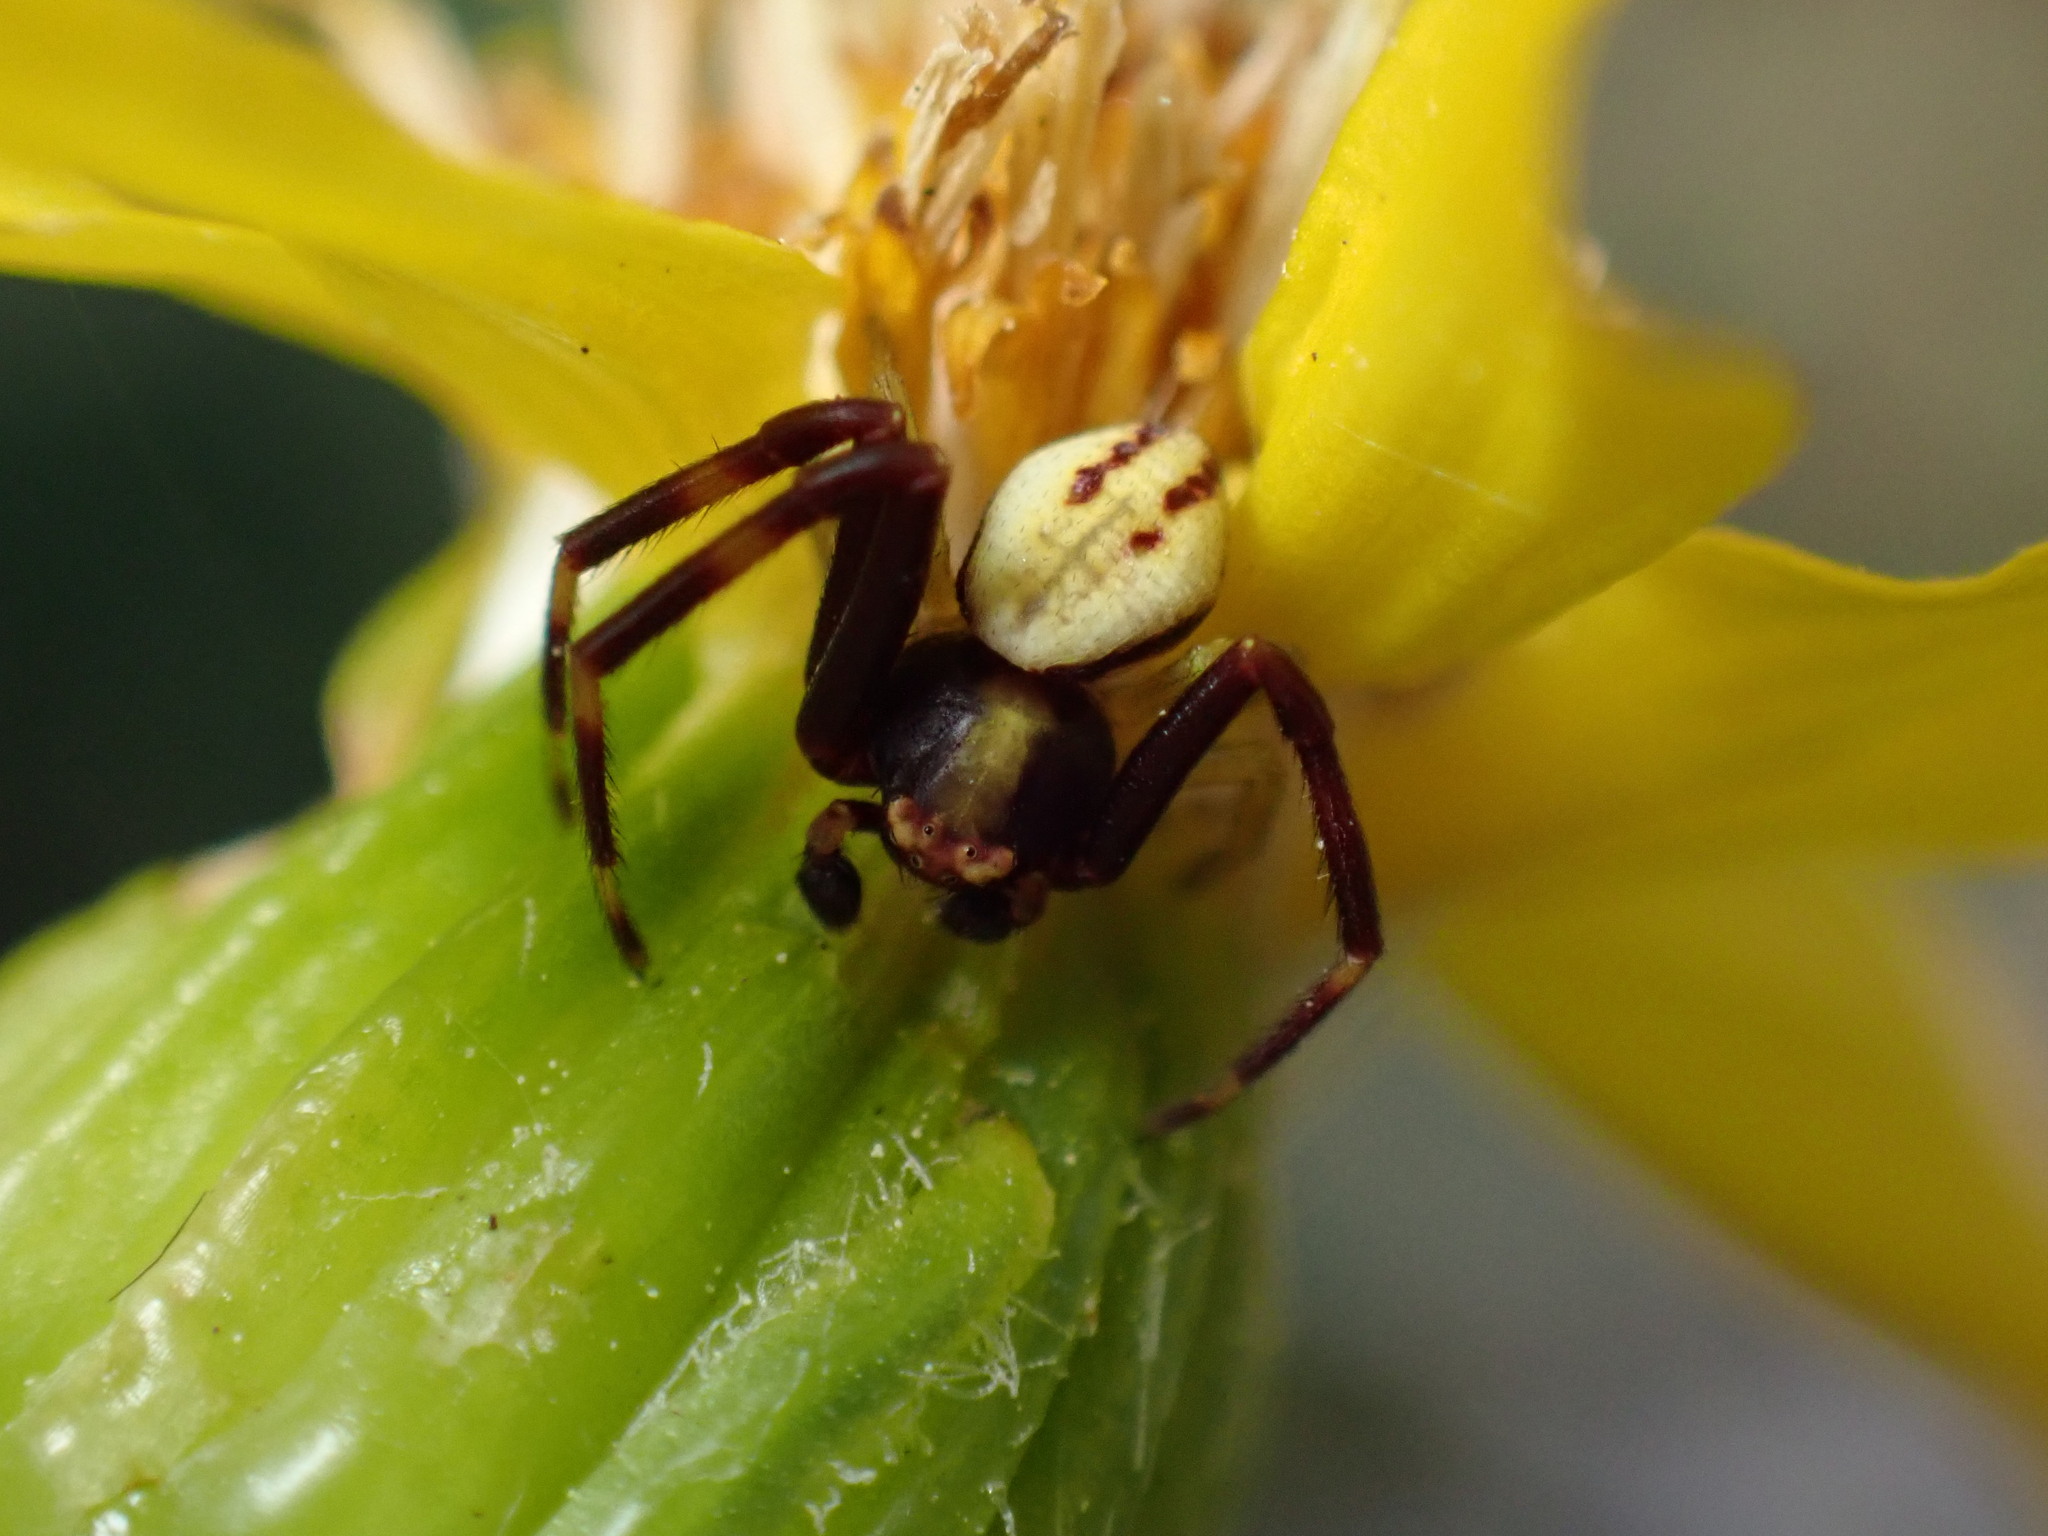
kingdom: Animalia
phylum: Arthropoda
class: Arachnida
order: Araneae
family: Thomisidae
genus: Misumena
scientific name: Misumena vatia
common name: Goldenrod crab spider
